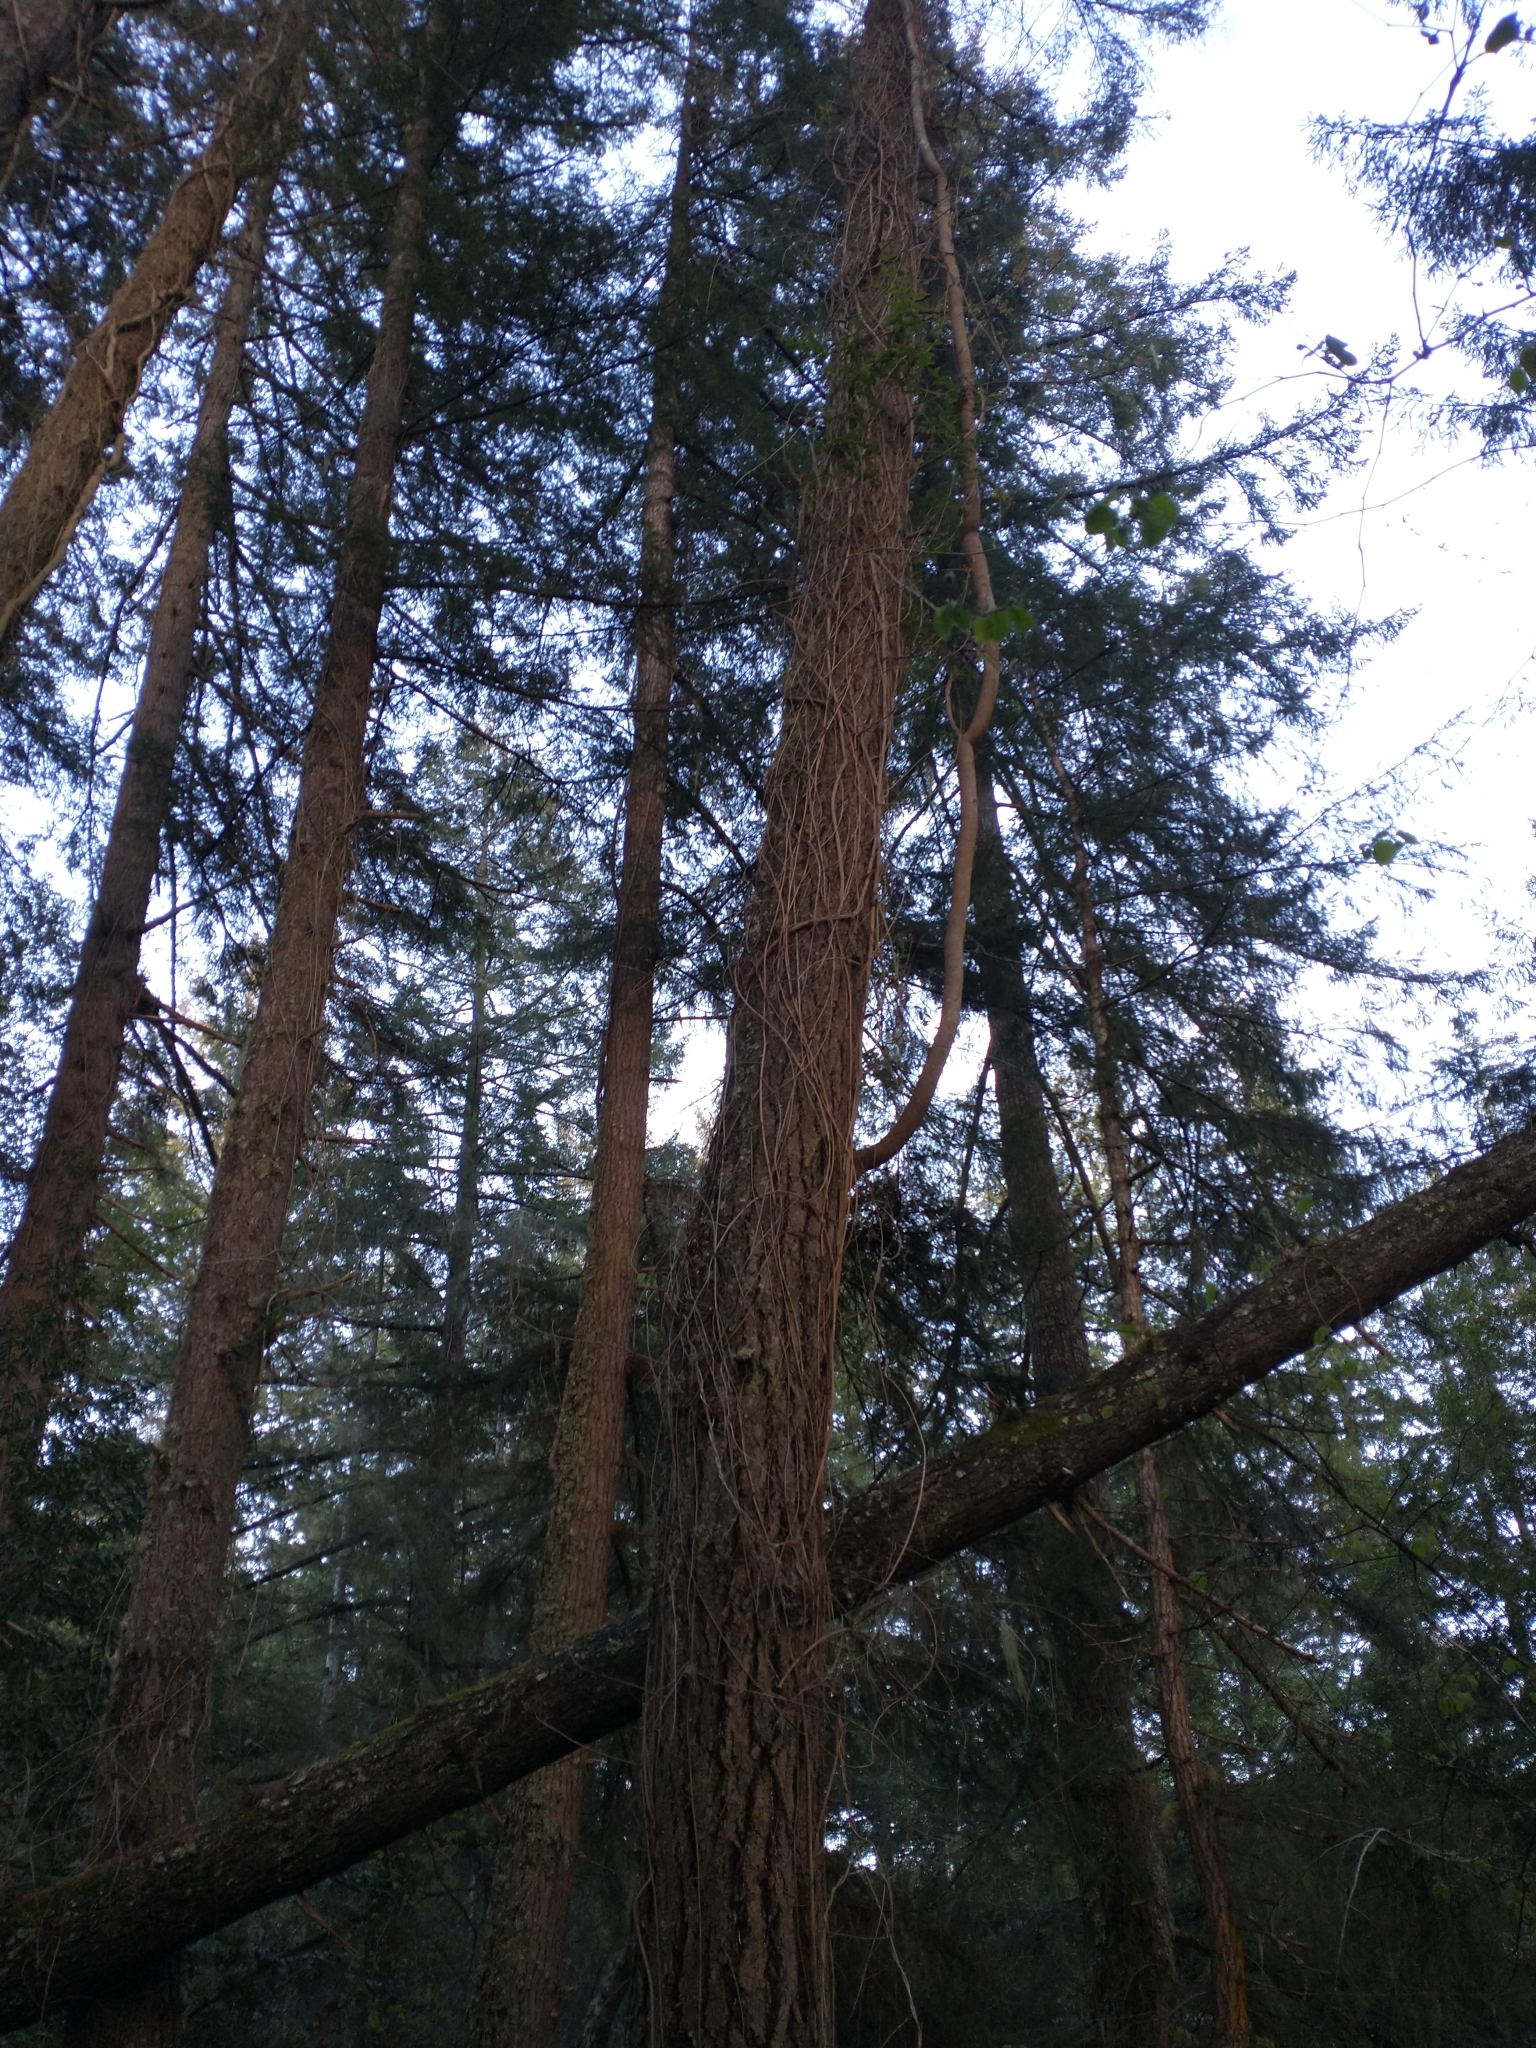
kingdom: Plantae
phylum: Tracheophyta
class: Pinopsida
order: Pinales
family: Pinaceae
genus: Pseudotsuga
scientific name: Pseudotsuga menziesii
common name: Douglas fir
